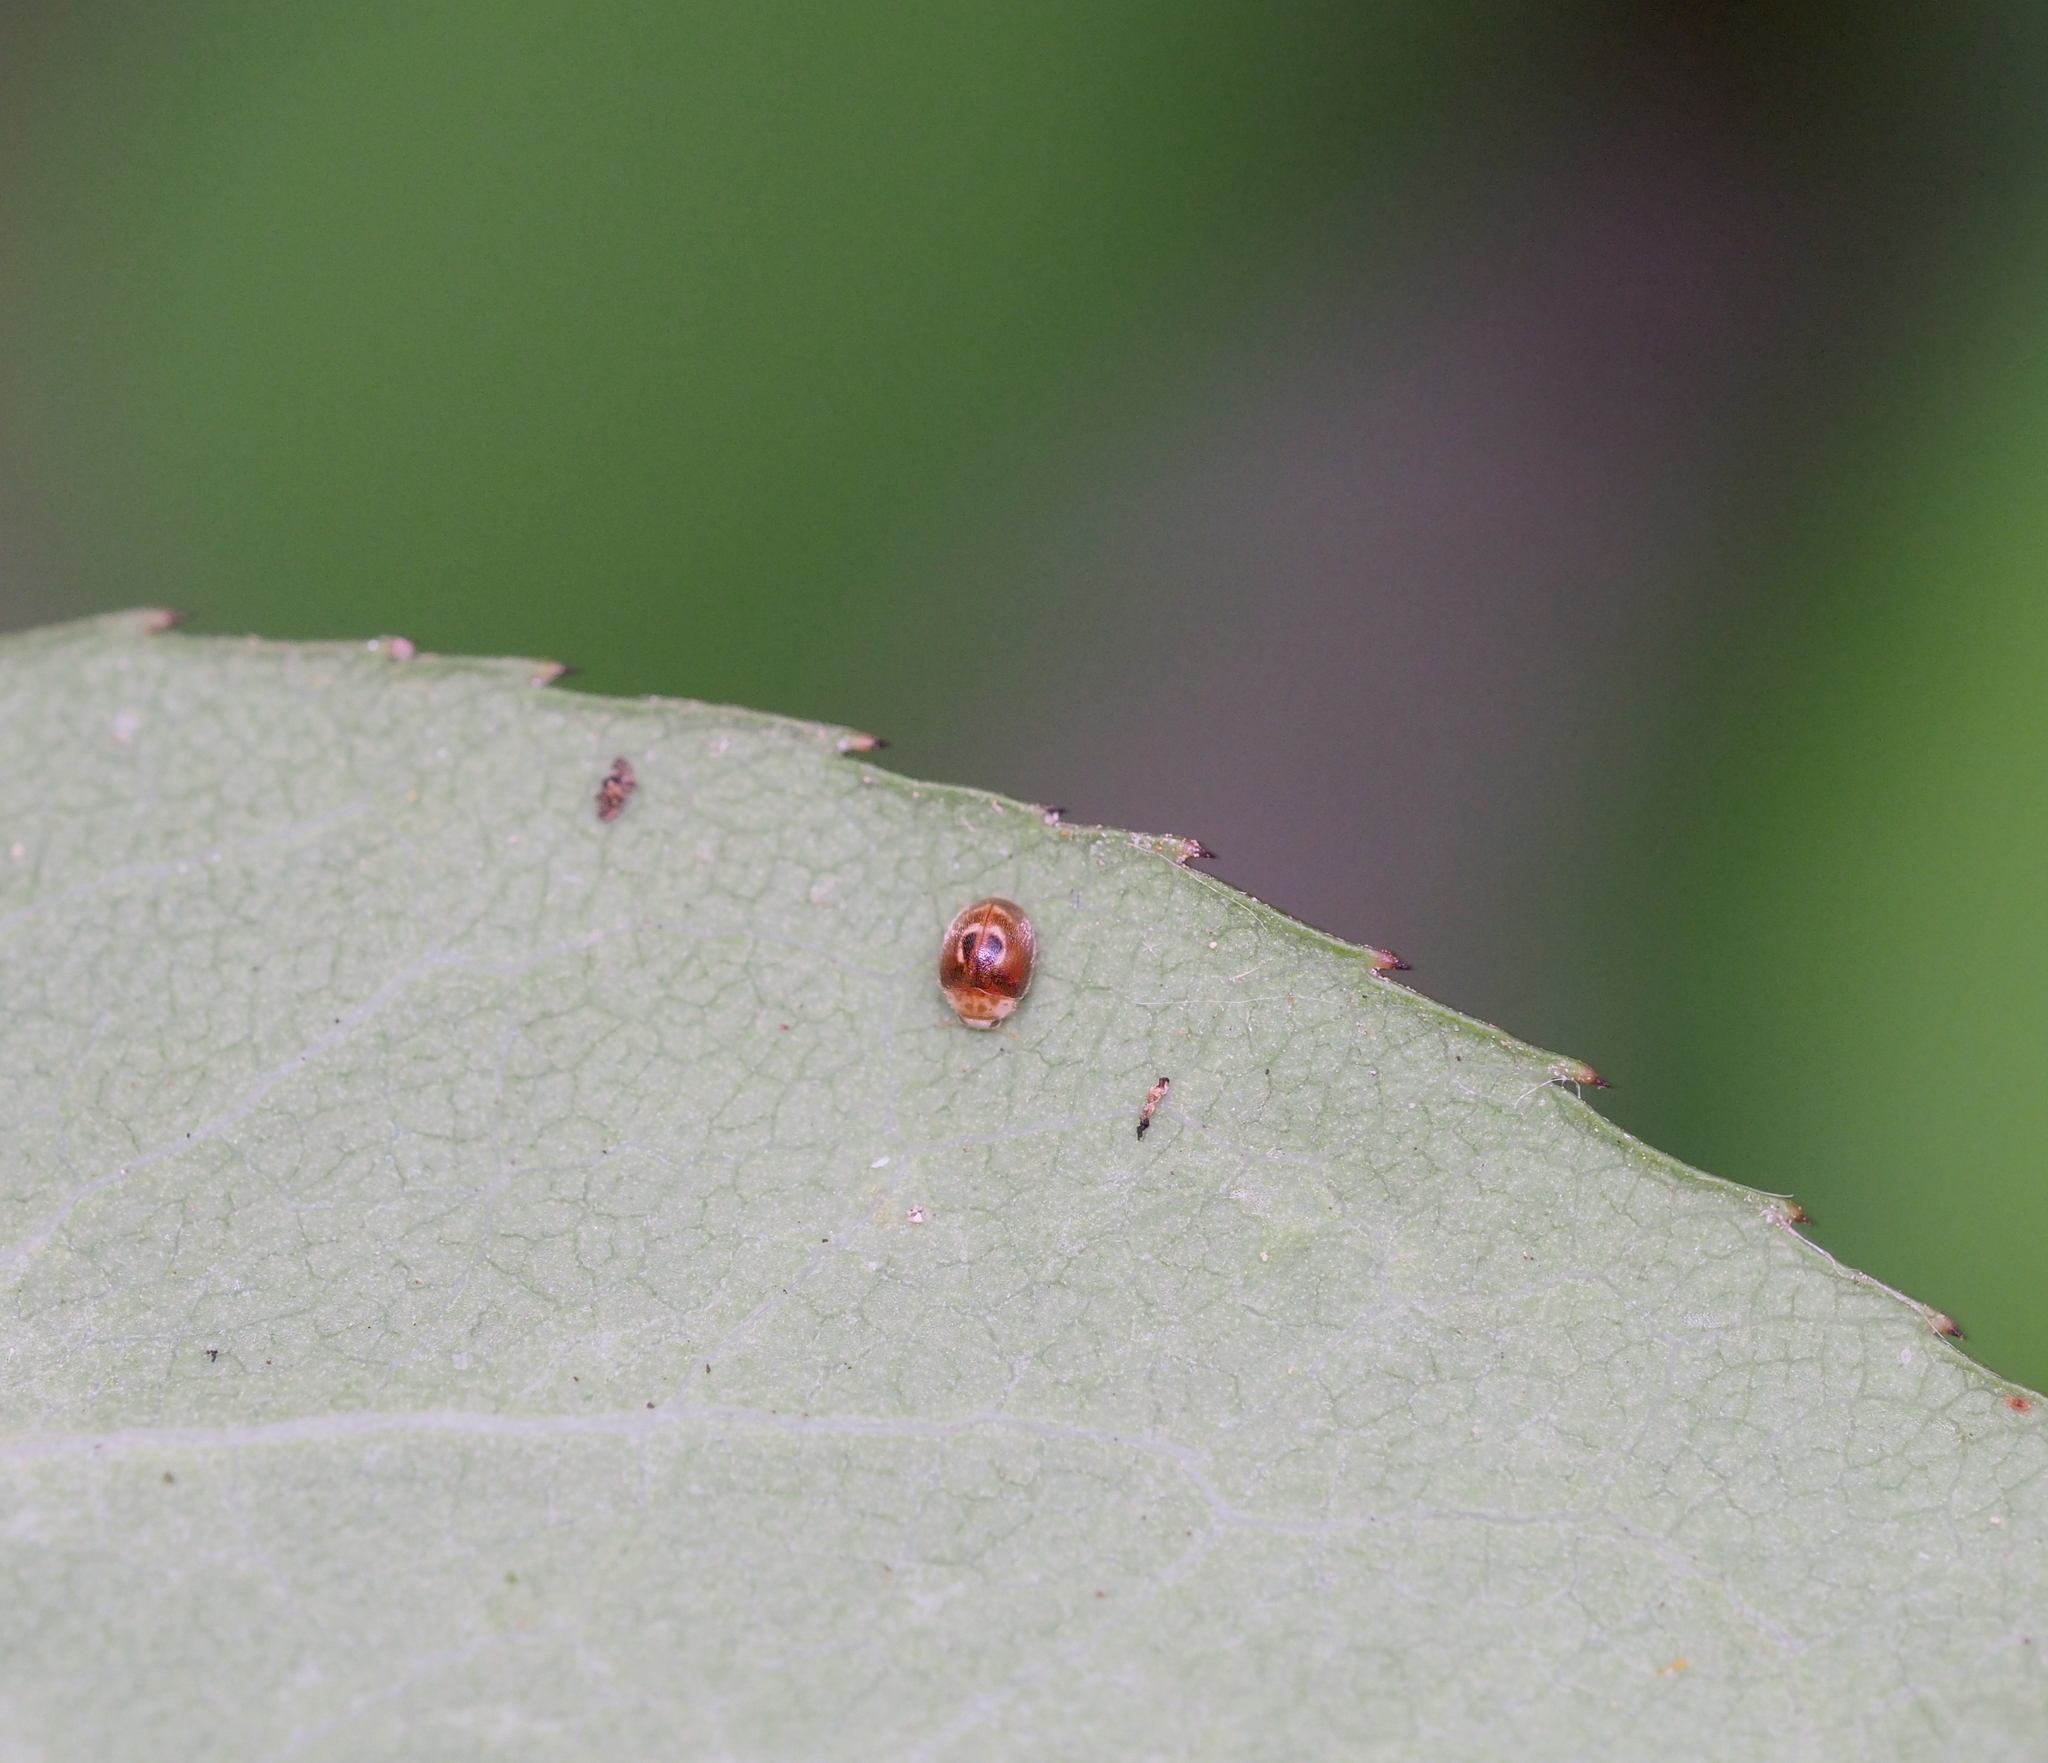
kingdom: Animalia
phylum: Arthropoda
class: Insecta
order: Coleoptera
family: Coccinellidae
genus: Clitostethus
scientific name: Clitostethus arcuatus
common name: Ladybird beetle
